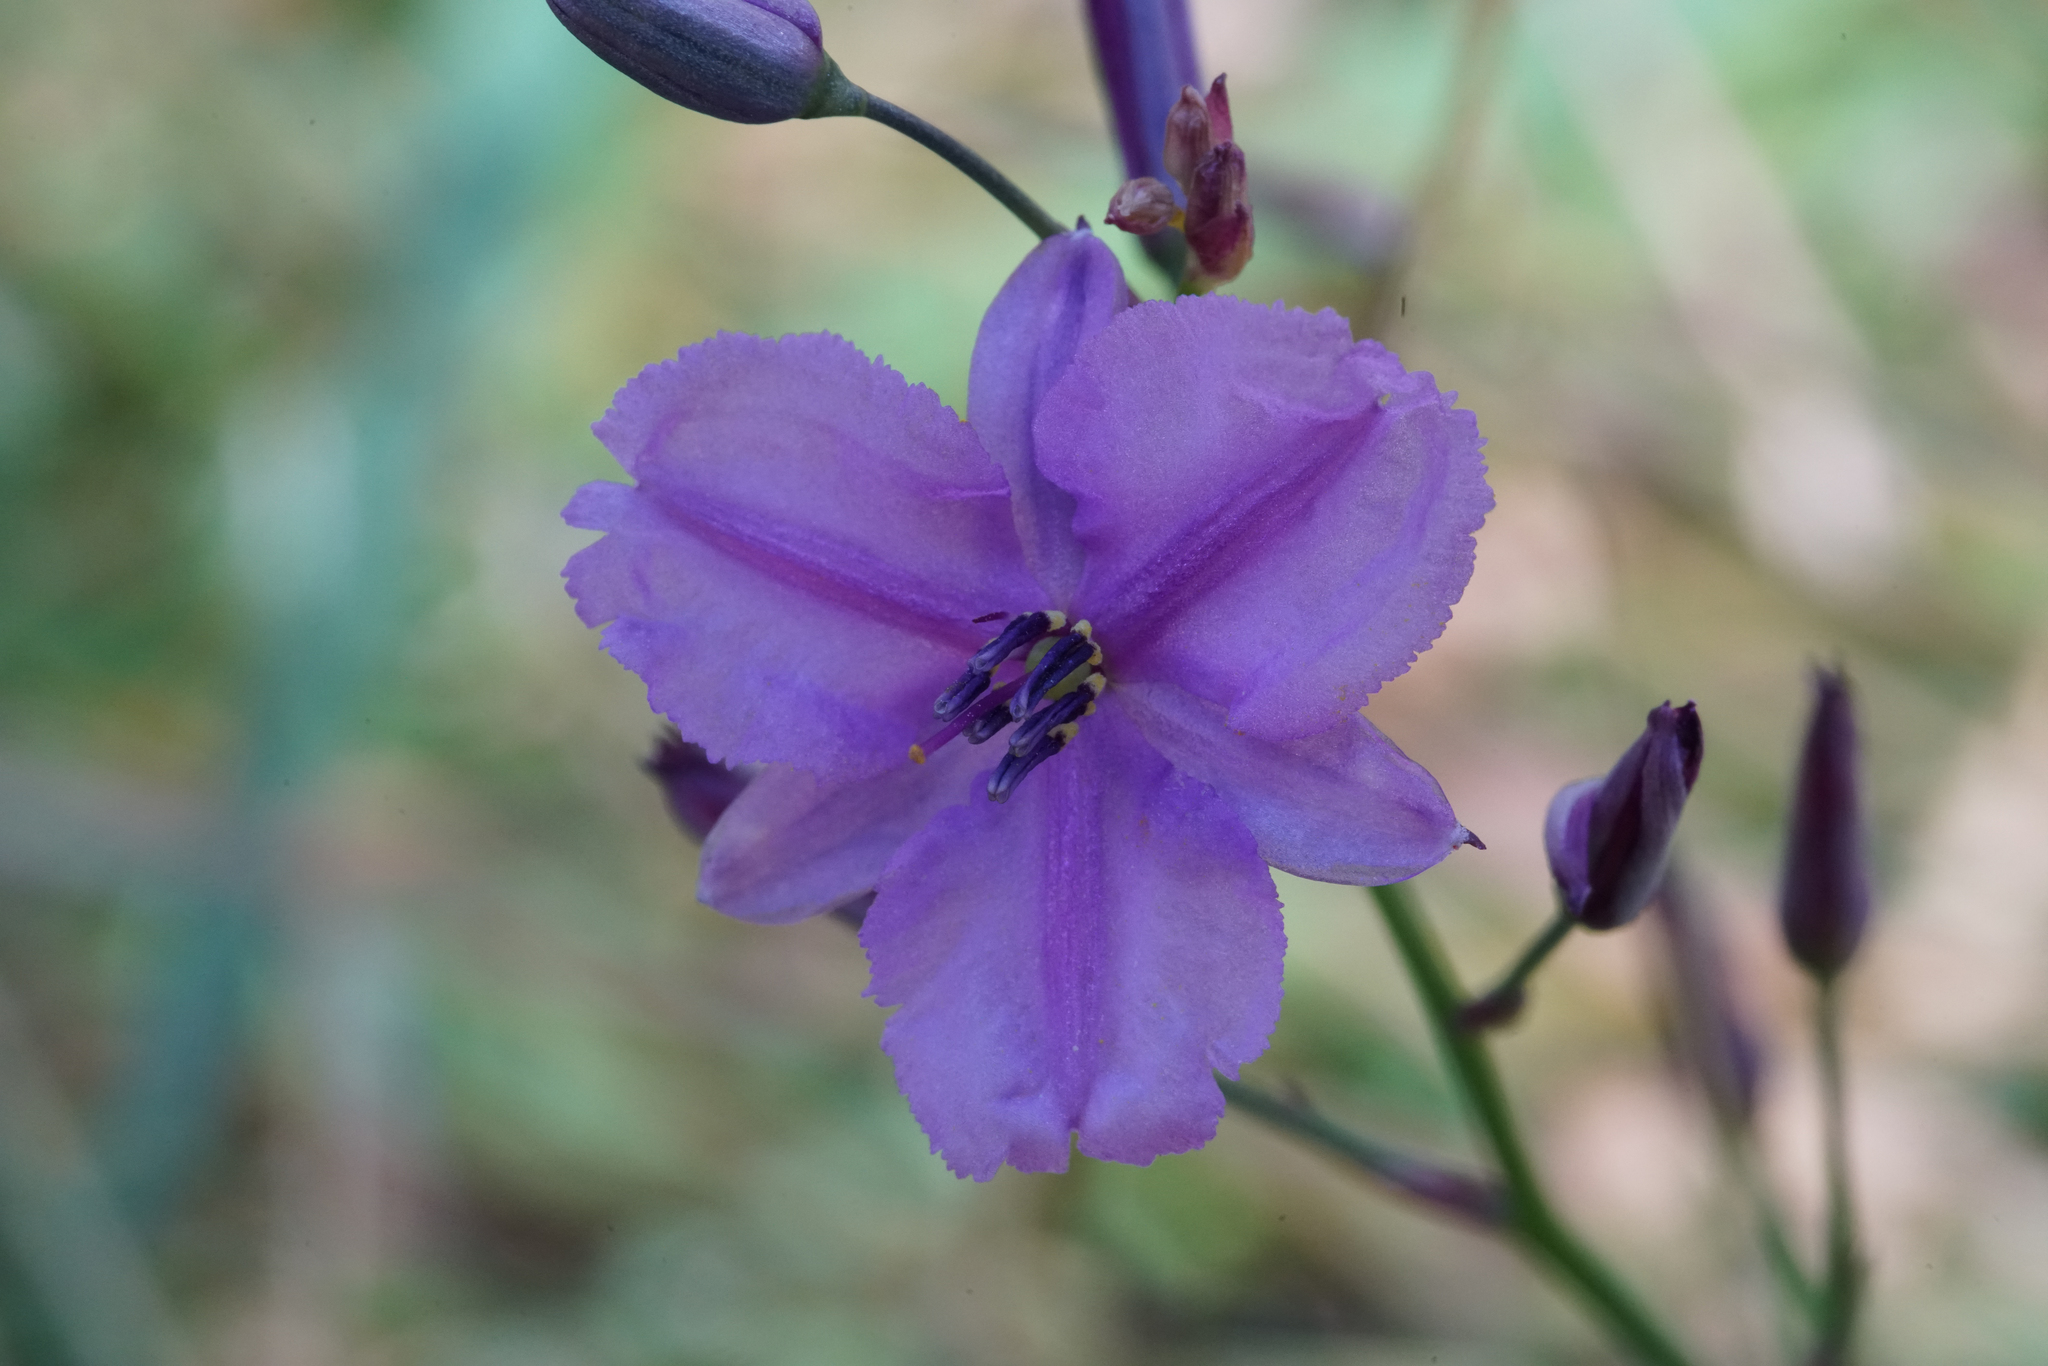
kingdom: Plantae
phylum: Tracheophyta
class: Liliopsida
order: Asparagales
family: Asparagaceae
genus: Arthropodium
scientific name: Arthropodium strictum
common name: Chocolate-lily
